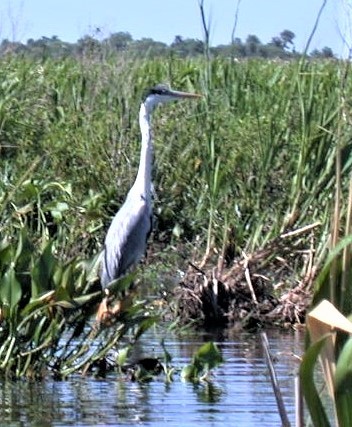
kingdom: Animalia
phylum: Chordata
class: Aves
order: Pelecaniformes
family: Ardeidae
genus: Ardea
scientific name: Ardea cocoi
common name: Cocoi heron
